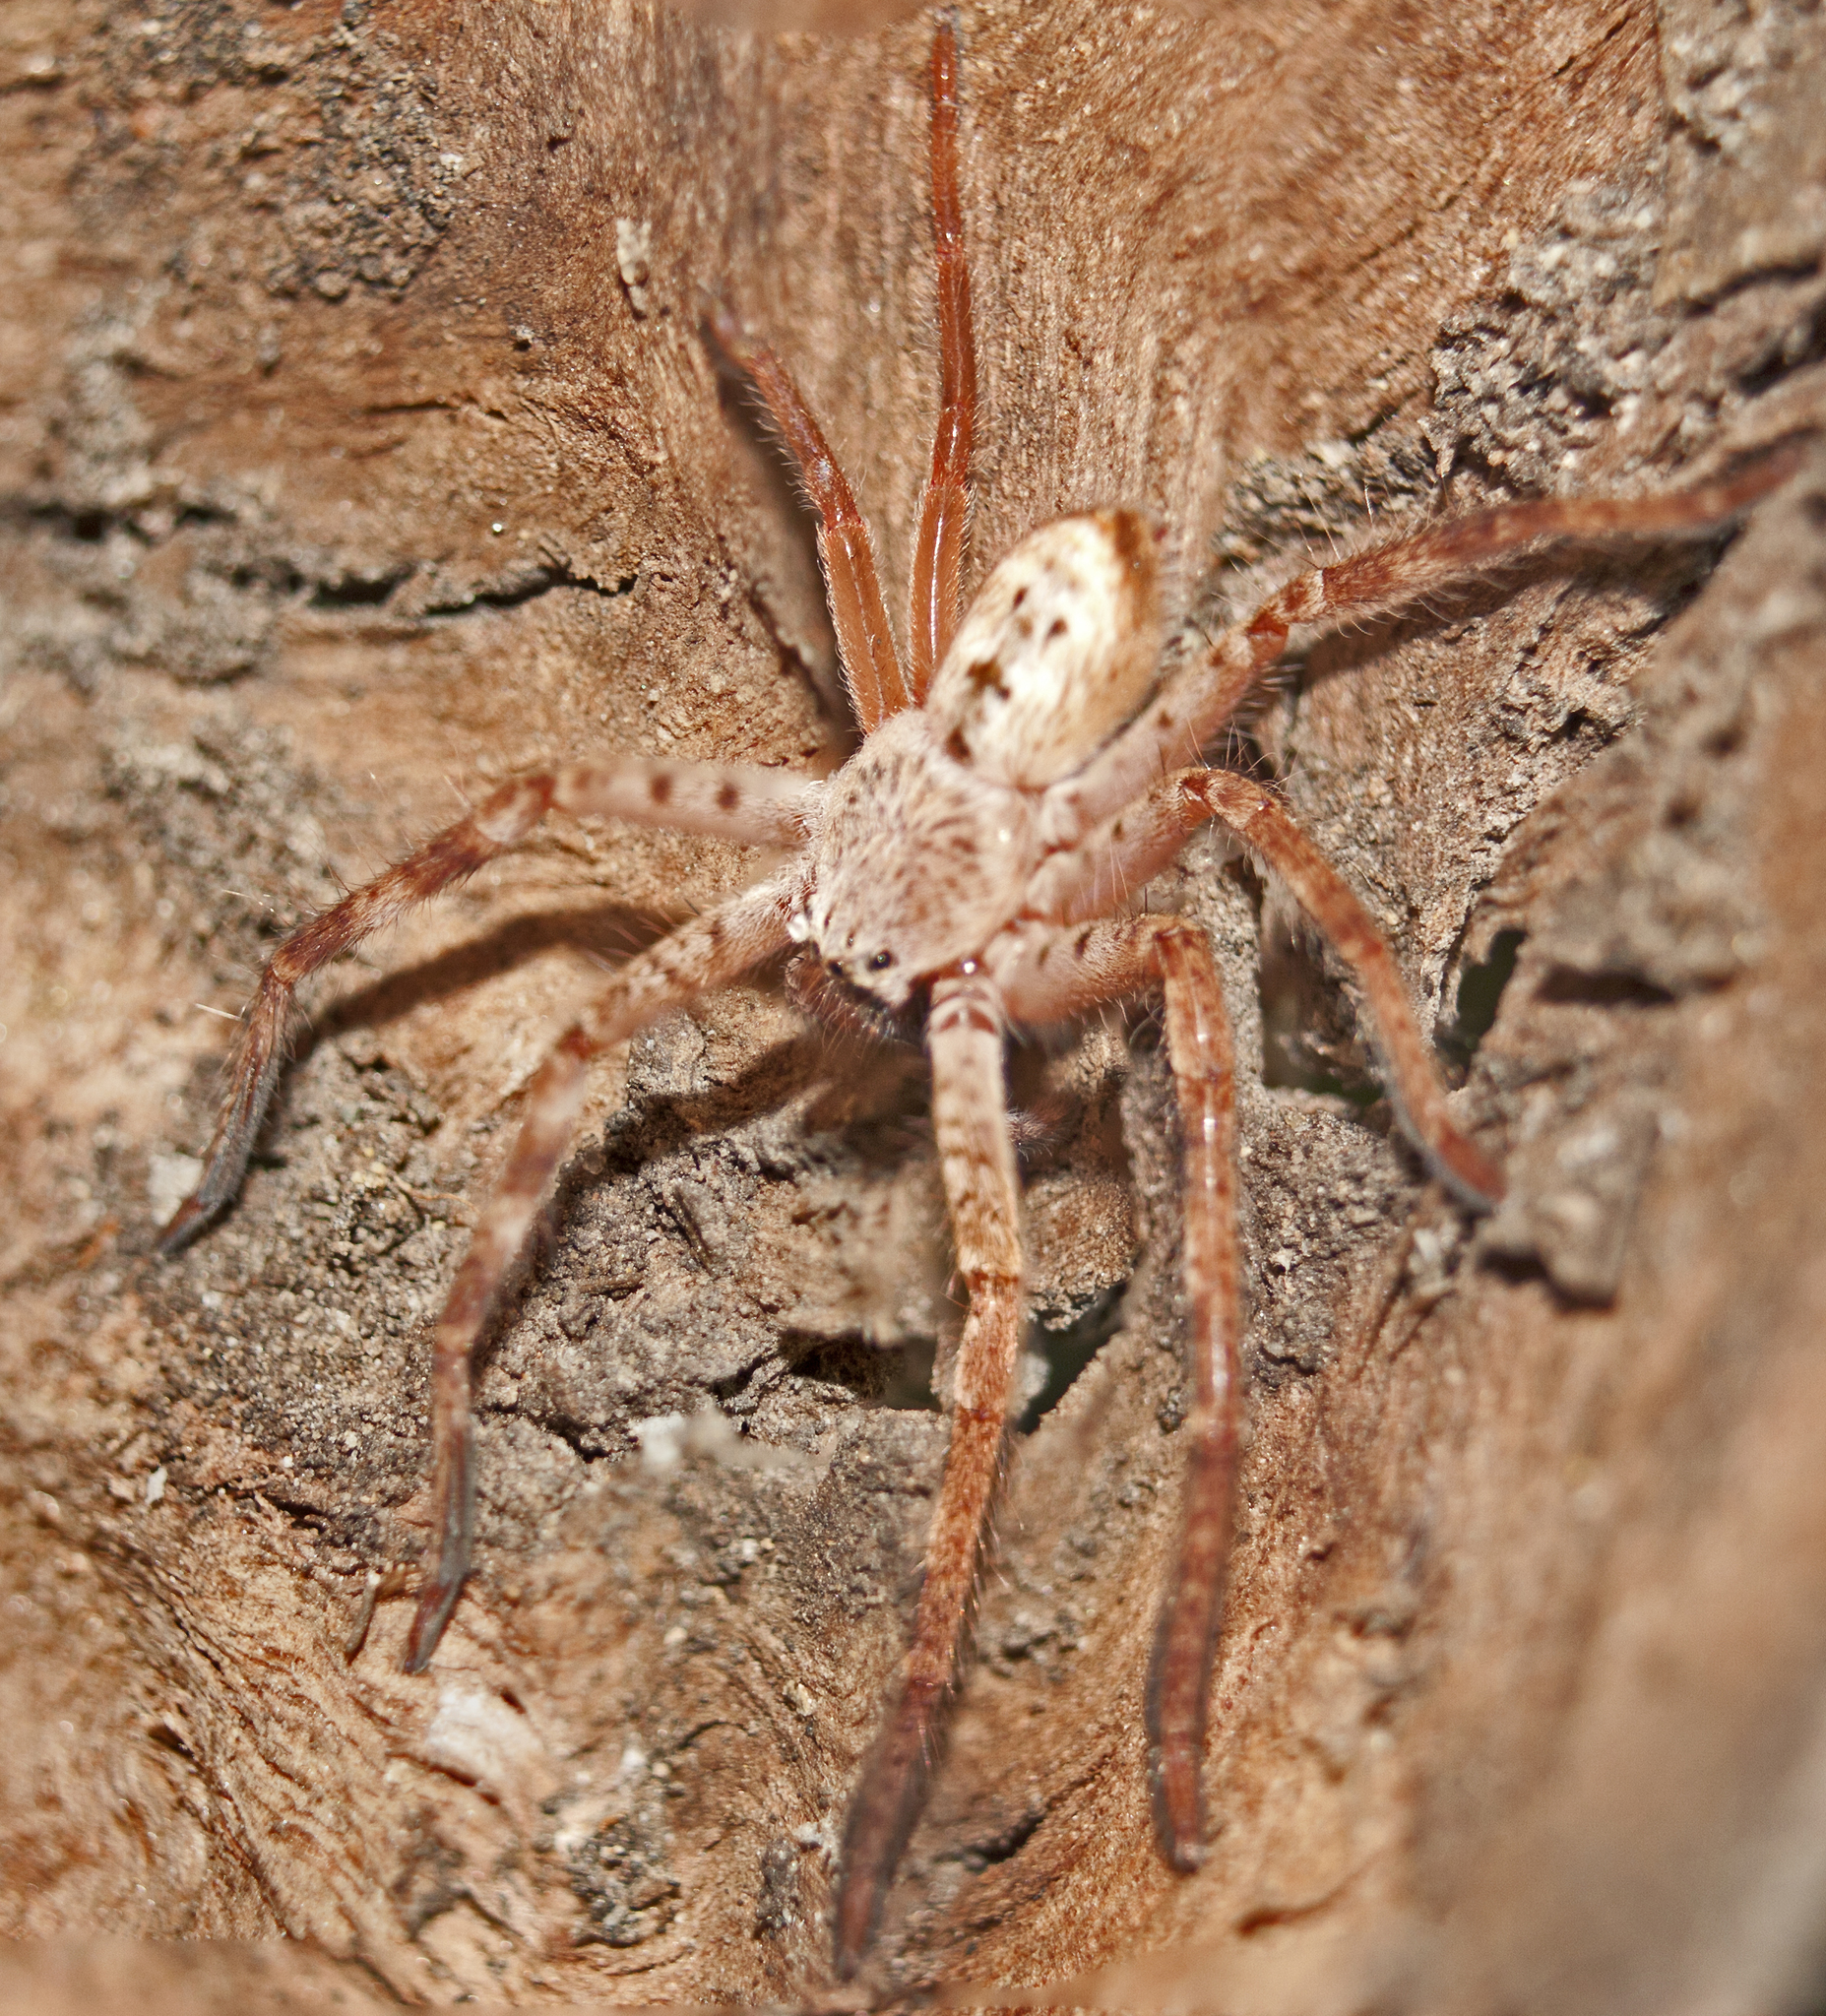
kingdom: Animalia
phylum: Arthropoda
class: Arachnida
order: Araneae
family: Sparassidae
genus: Holconia
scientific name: Holconia immanis
